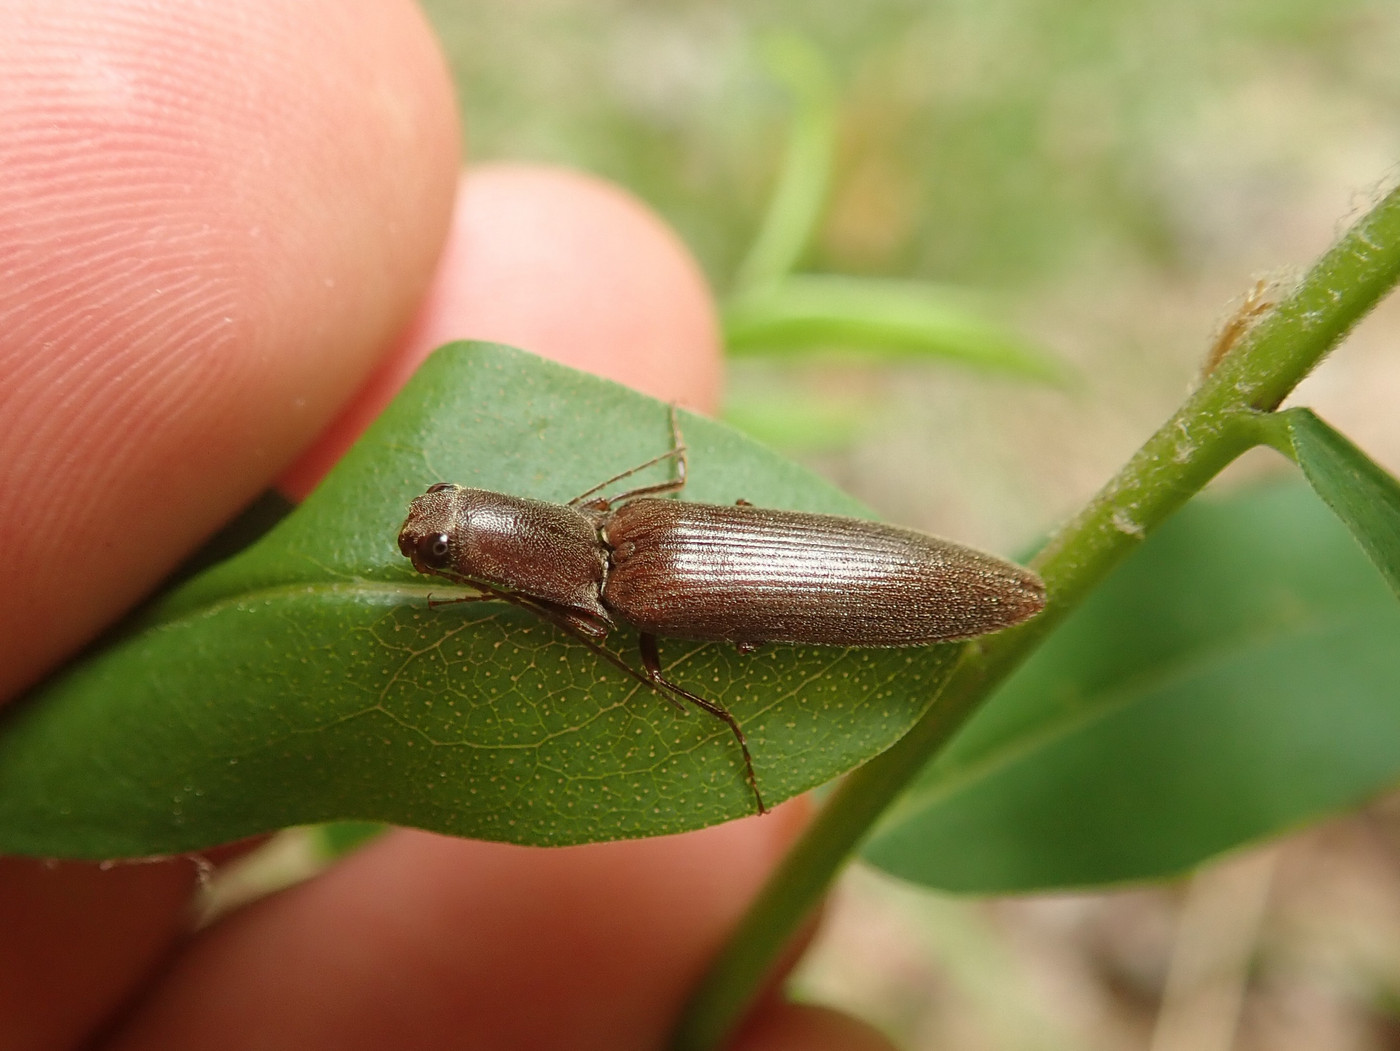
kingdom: Animalia
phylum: Arthropoda
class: Insecta
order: Coleoptera
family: Elateridae
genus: Proludius
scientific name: Proludius pyrros
